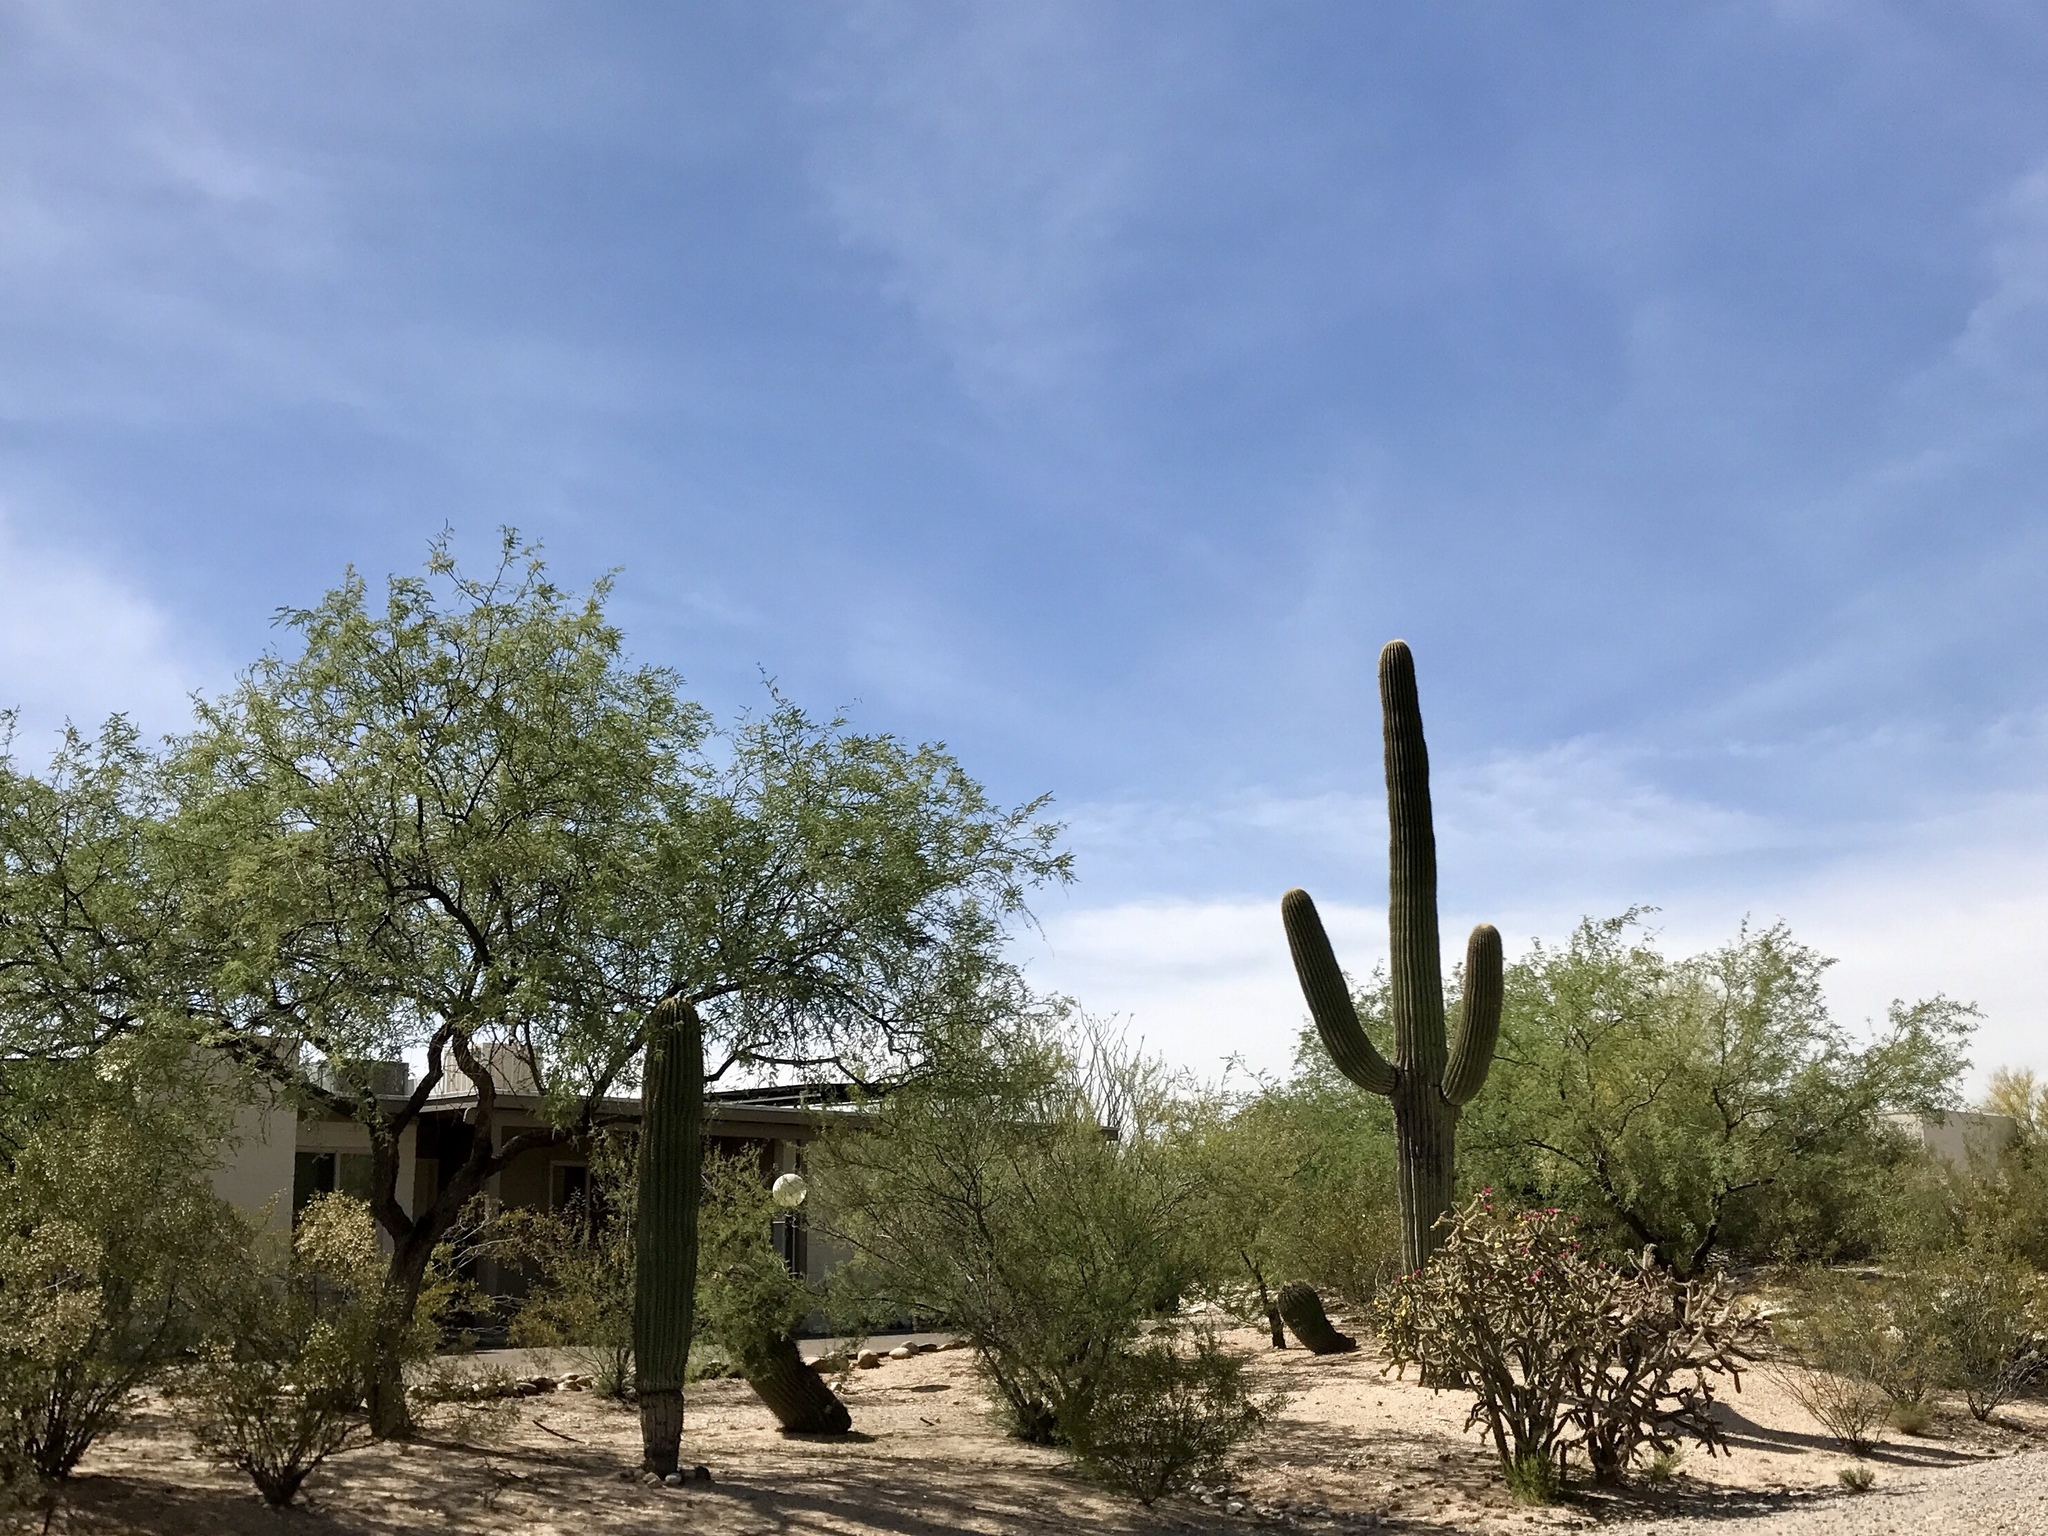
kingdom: Plantae
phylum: Tracheophyta
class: Magnoliopsida
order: Caryophyllales
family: Cactaceae
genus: Carnegiea
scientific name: Carnegiea gigantea
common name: Saguaro
